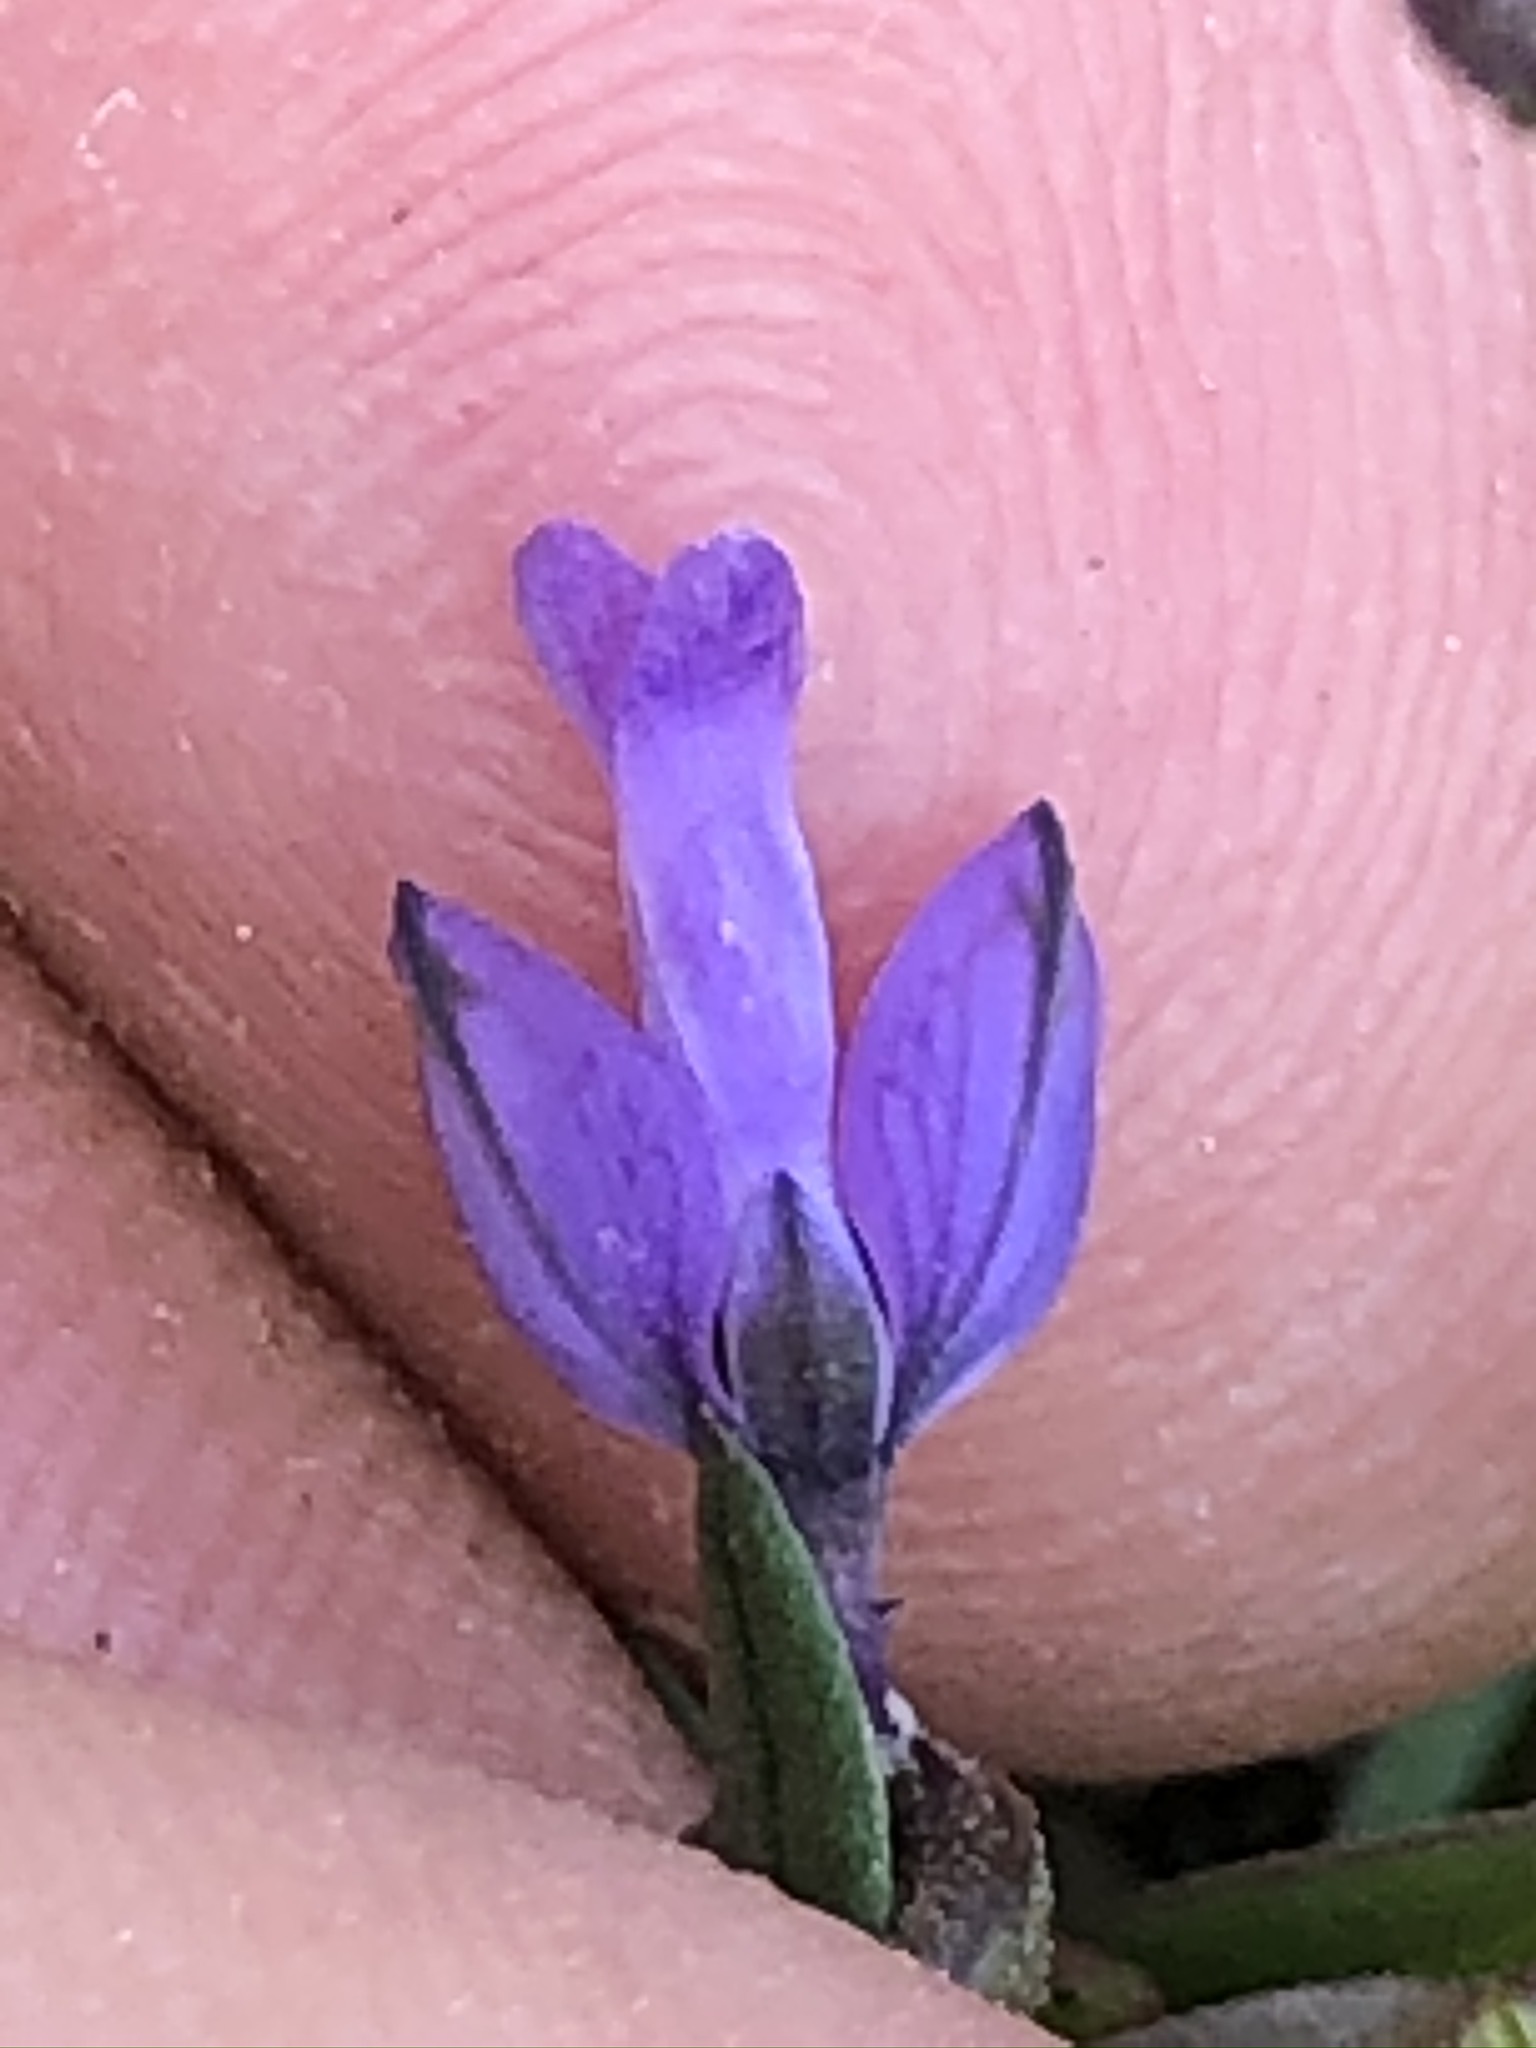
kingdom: Plantae
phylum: Tracheophyta
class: Magnoliopsida
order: Fabales
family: Polygalaceae
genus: Polygala
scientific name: Polygala vulgaris
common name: Common milkwort
